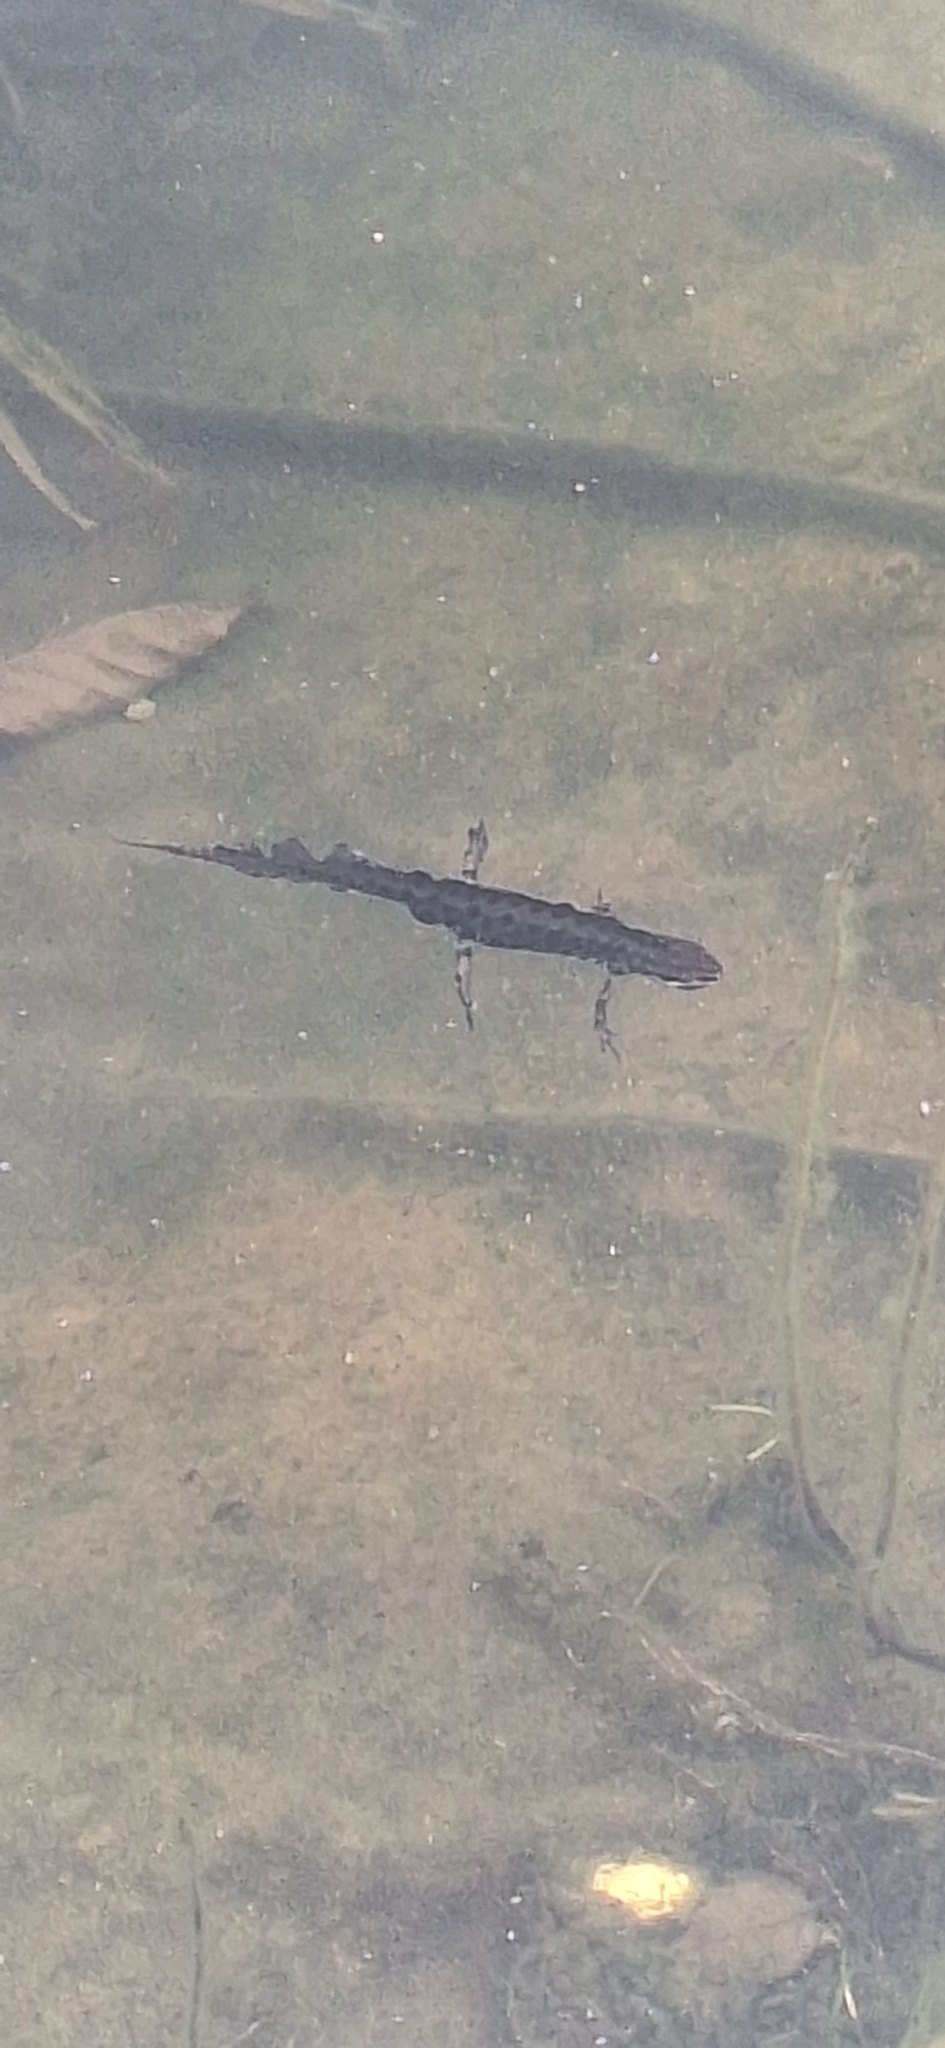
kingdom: Animalia
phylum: Chordata
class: Amphibia
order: Caudata
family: Salamandridae
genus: Lissotriton
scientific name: Lissotriton vulgaris
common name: Smooth newt
